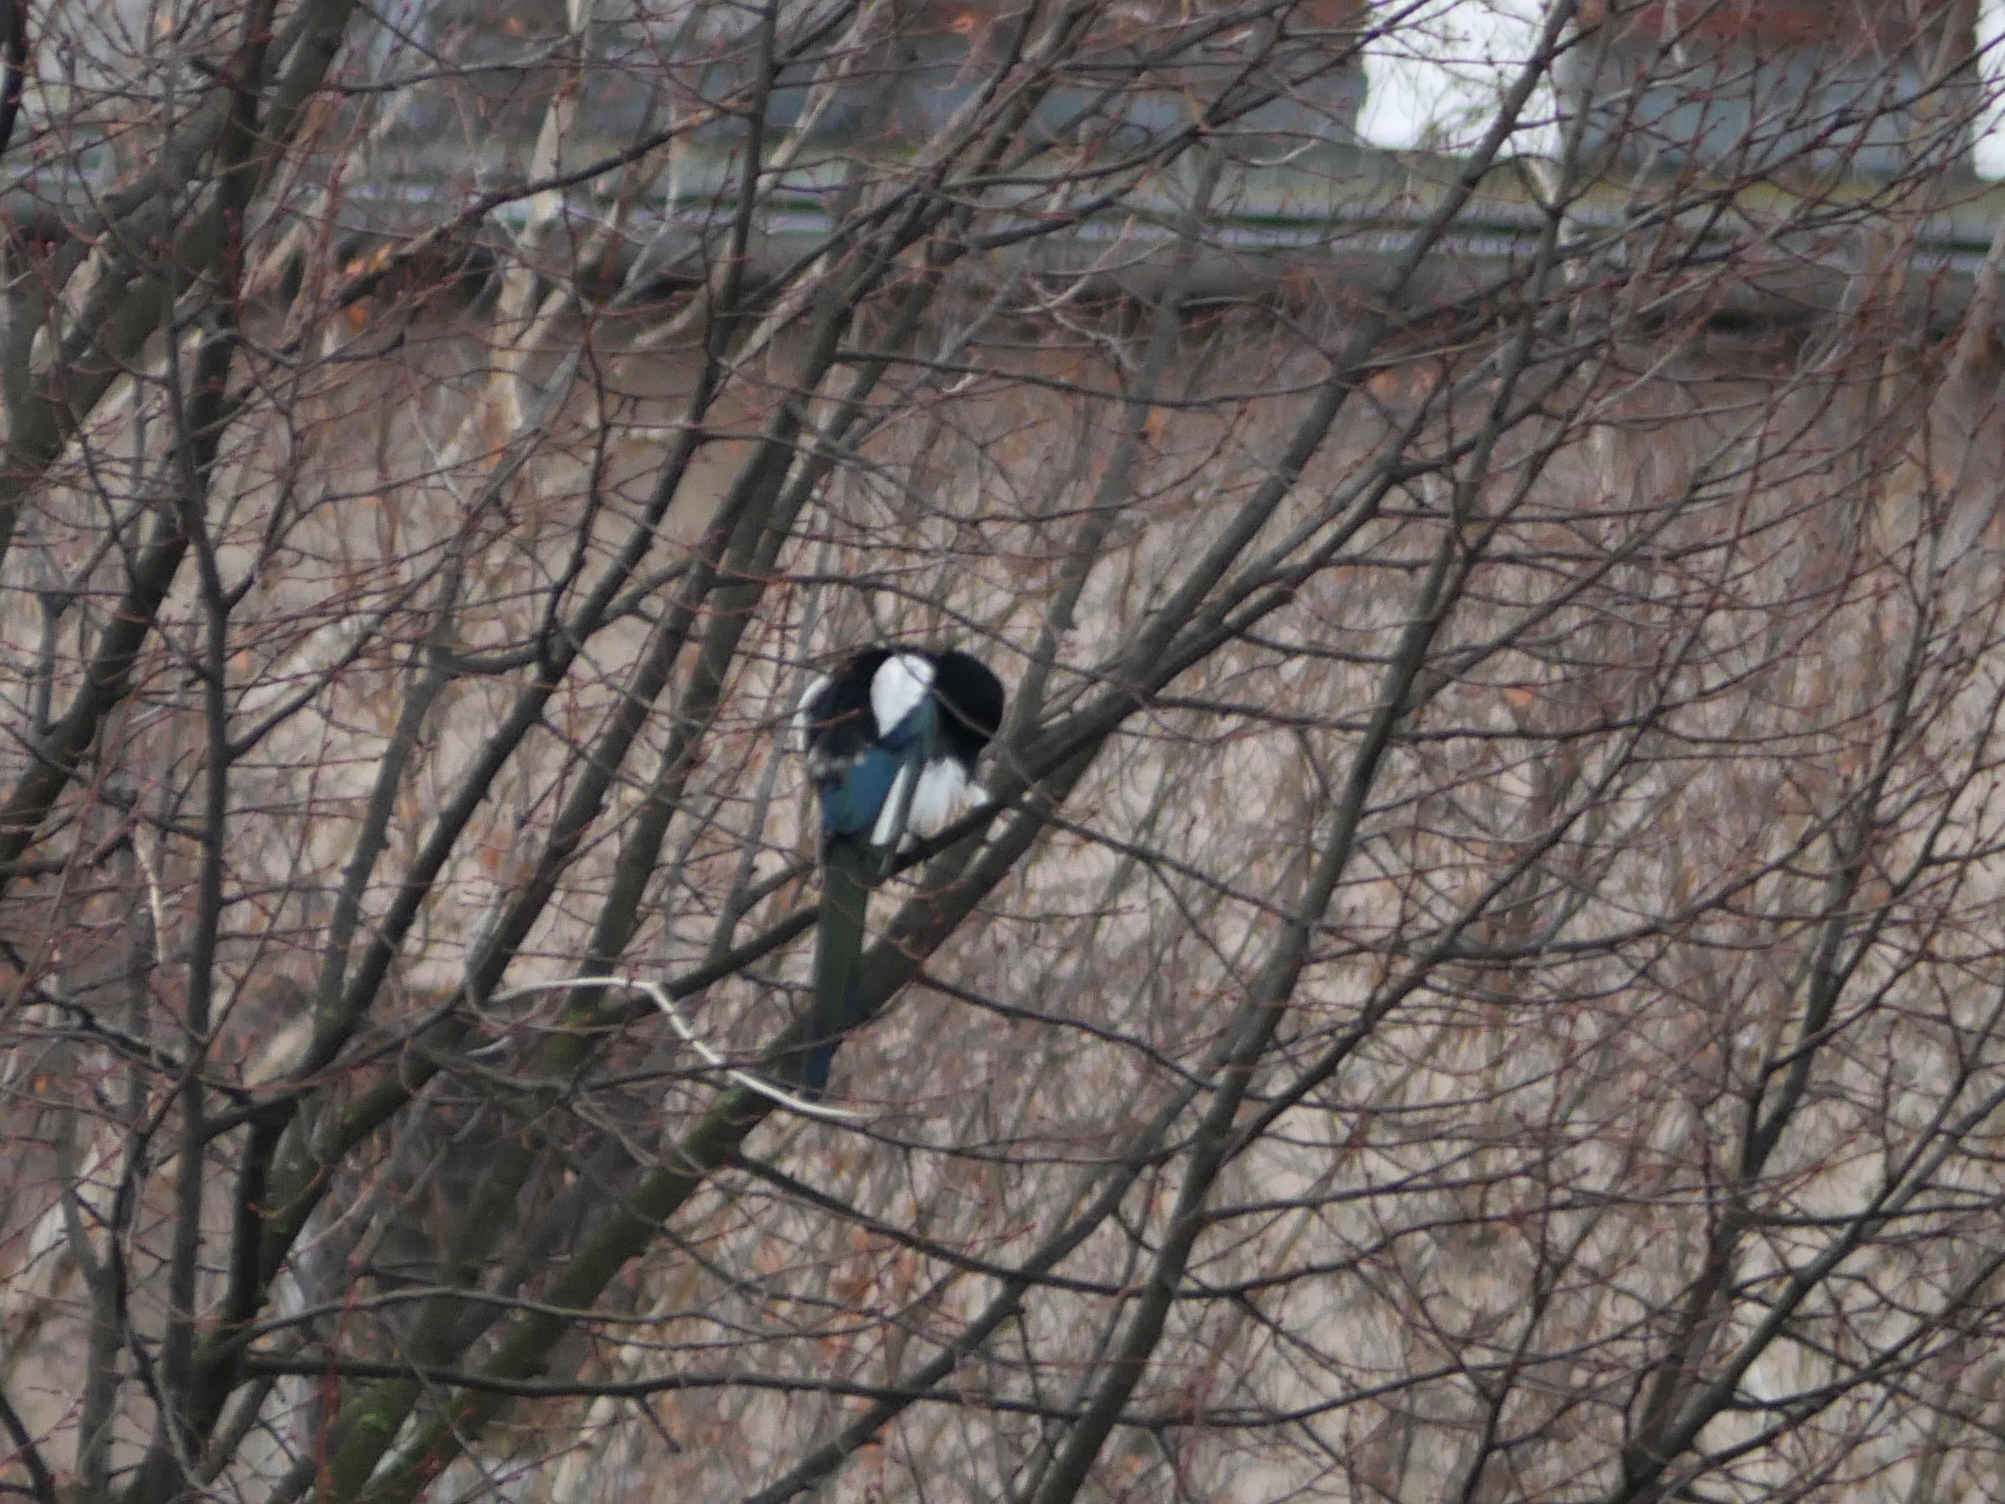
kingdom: Animalia
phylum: Chordata
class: Aves
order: Passeriformes
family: Corvidae
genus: Pica
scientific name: Pica pica
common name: Eurasian magpie
